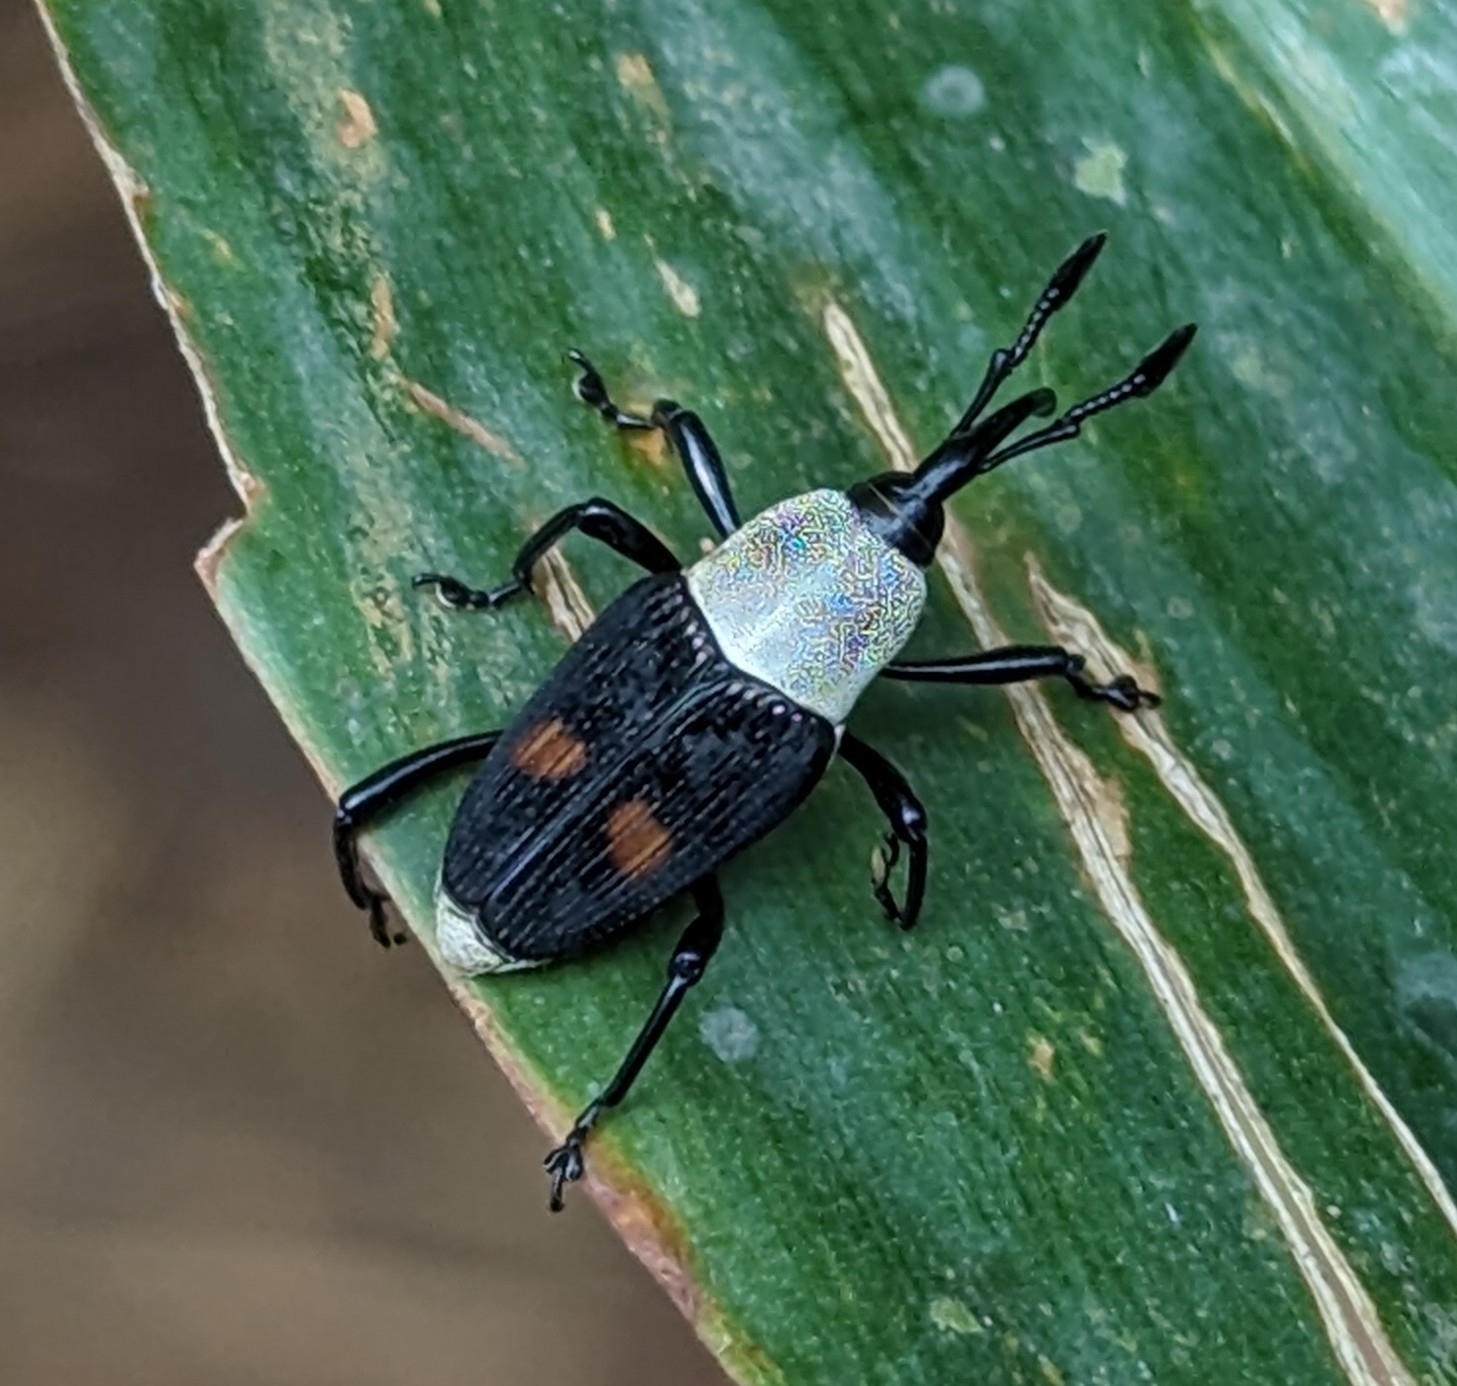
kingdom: Animalia
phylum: Arthropoda
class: Insecta
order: Coleoptera
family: Dryophthoridae
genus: Cercidocerus
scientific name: Cercidocerus albicollis
